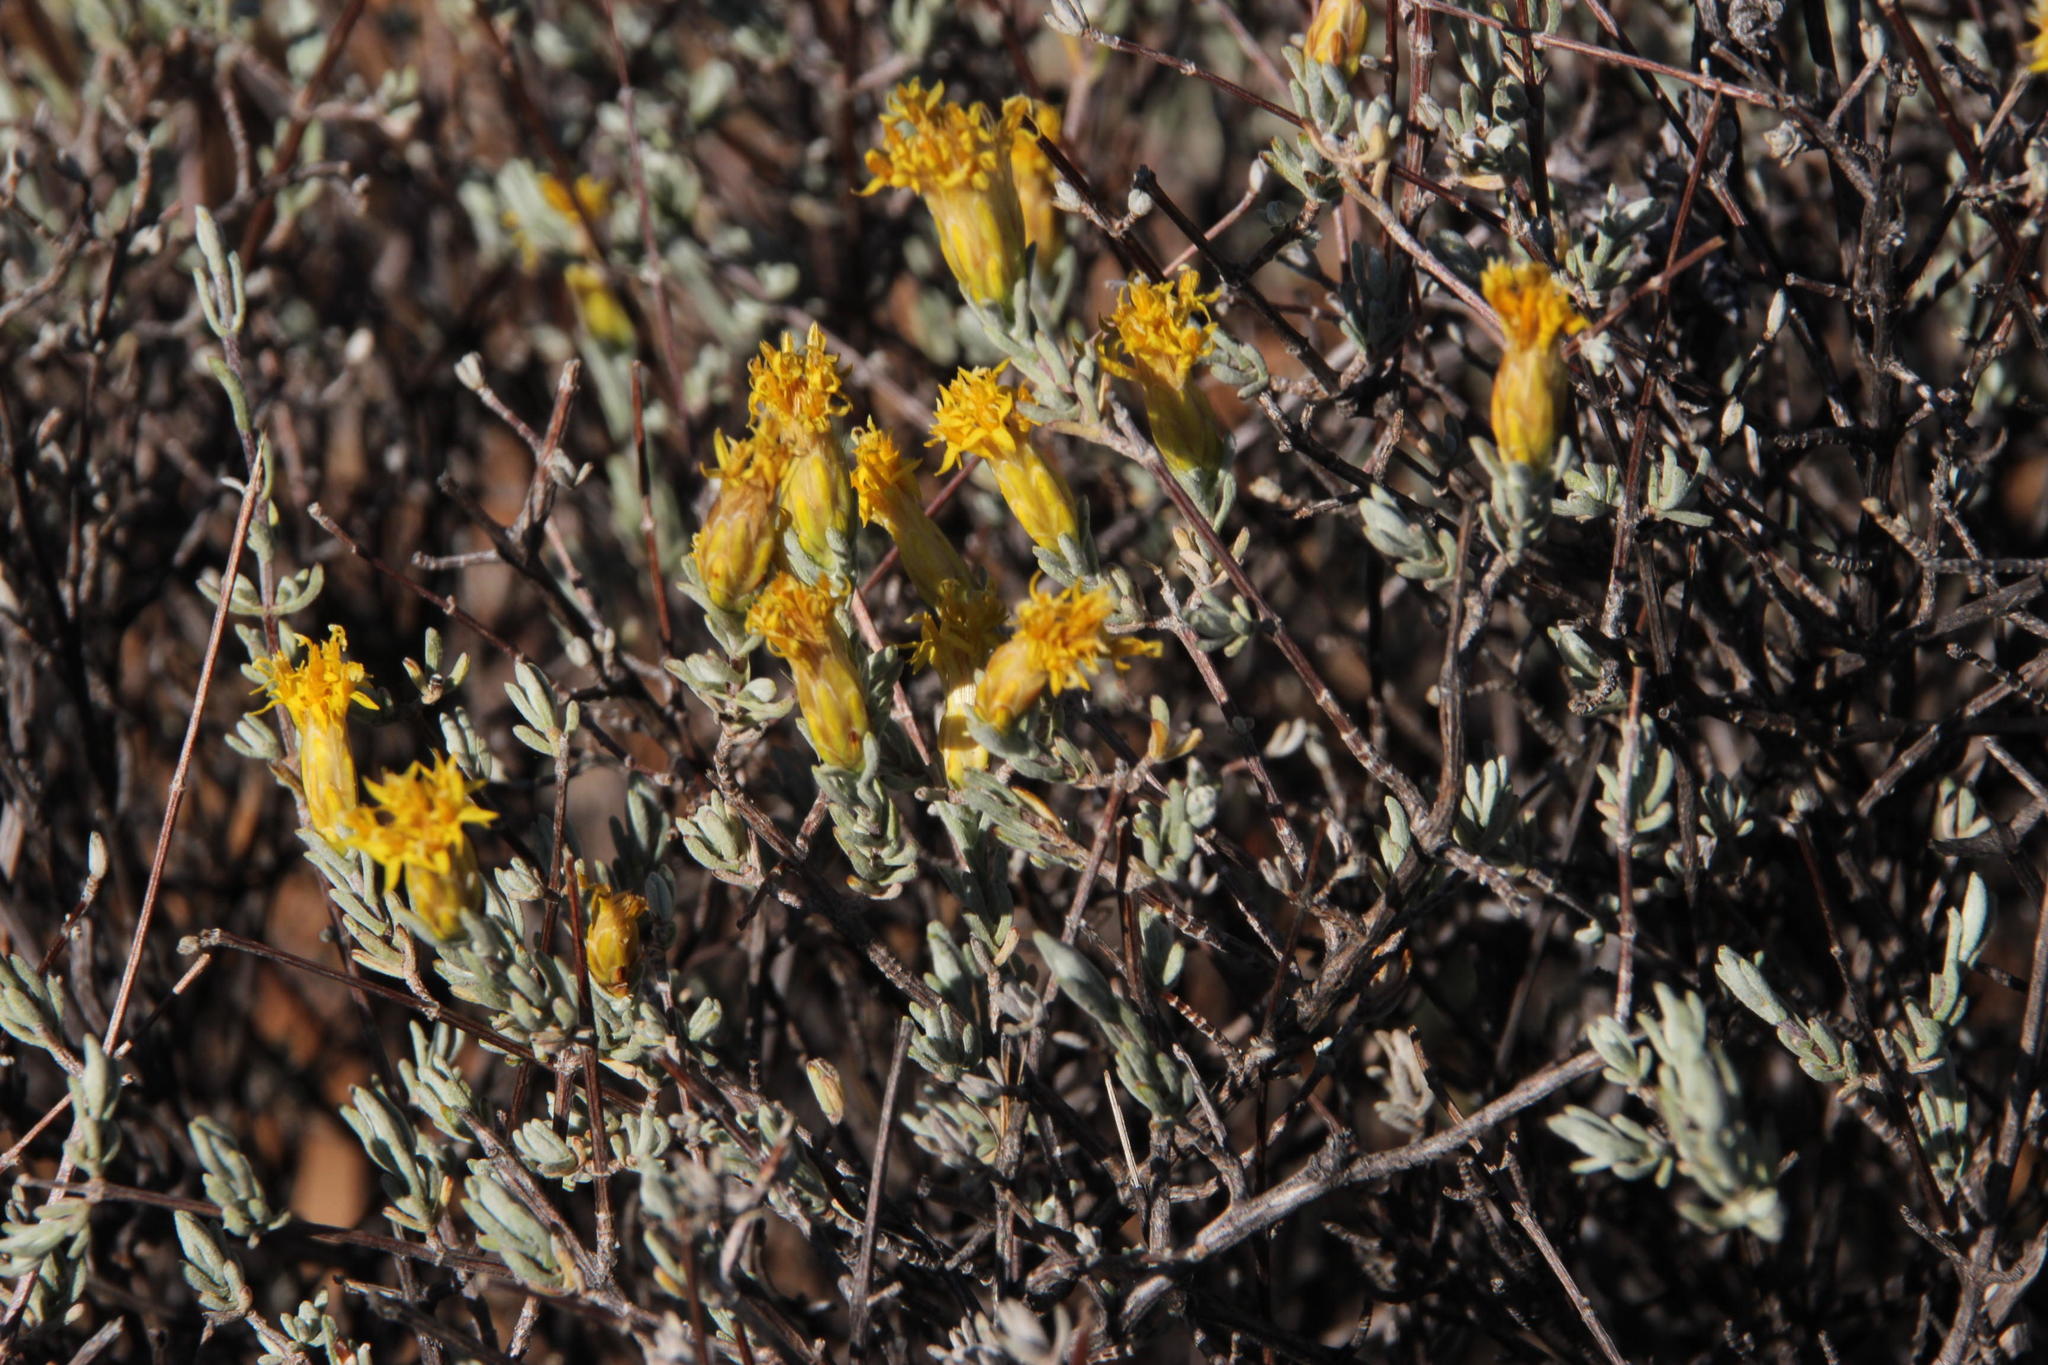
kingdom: Plantae
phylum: Tracheophyta
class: Magnoliopsida
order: Asterales
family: Asteraceae
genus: Pteronia
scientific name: Pteronia incana
